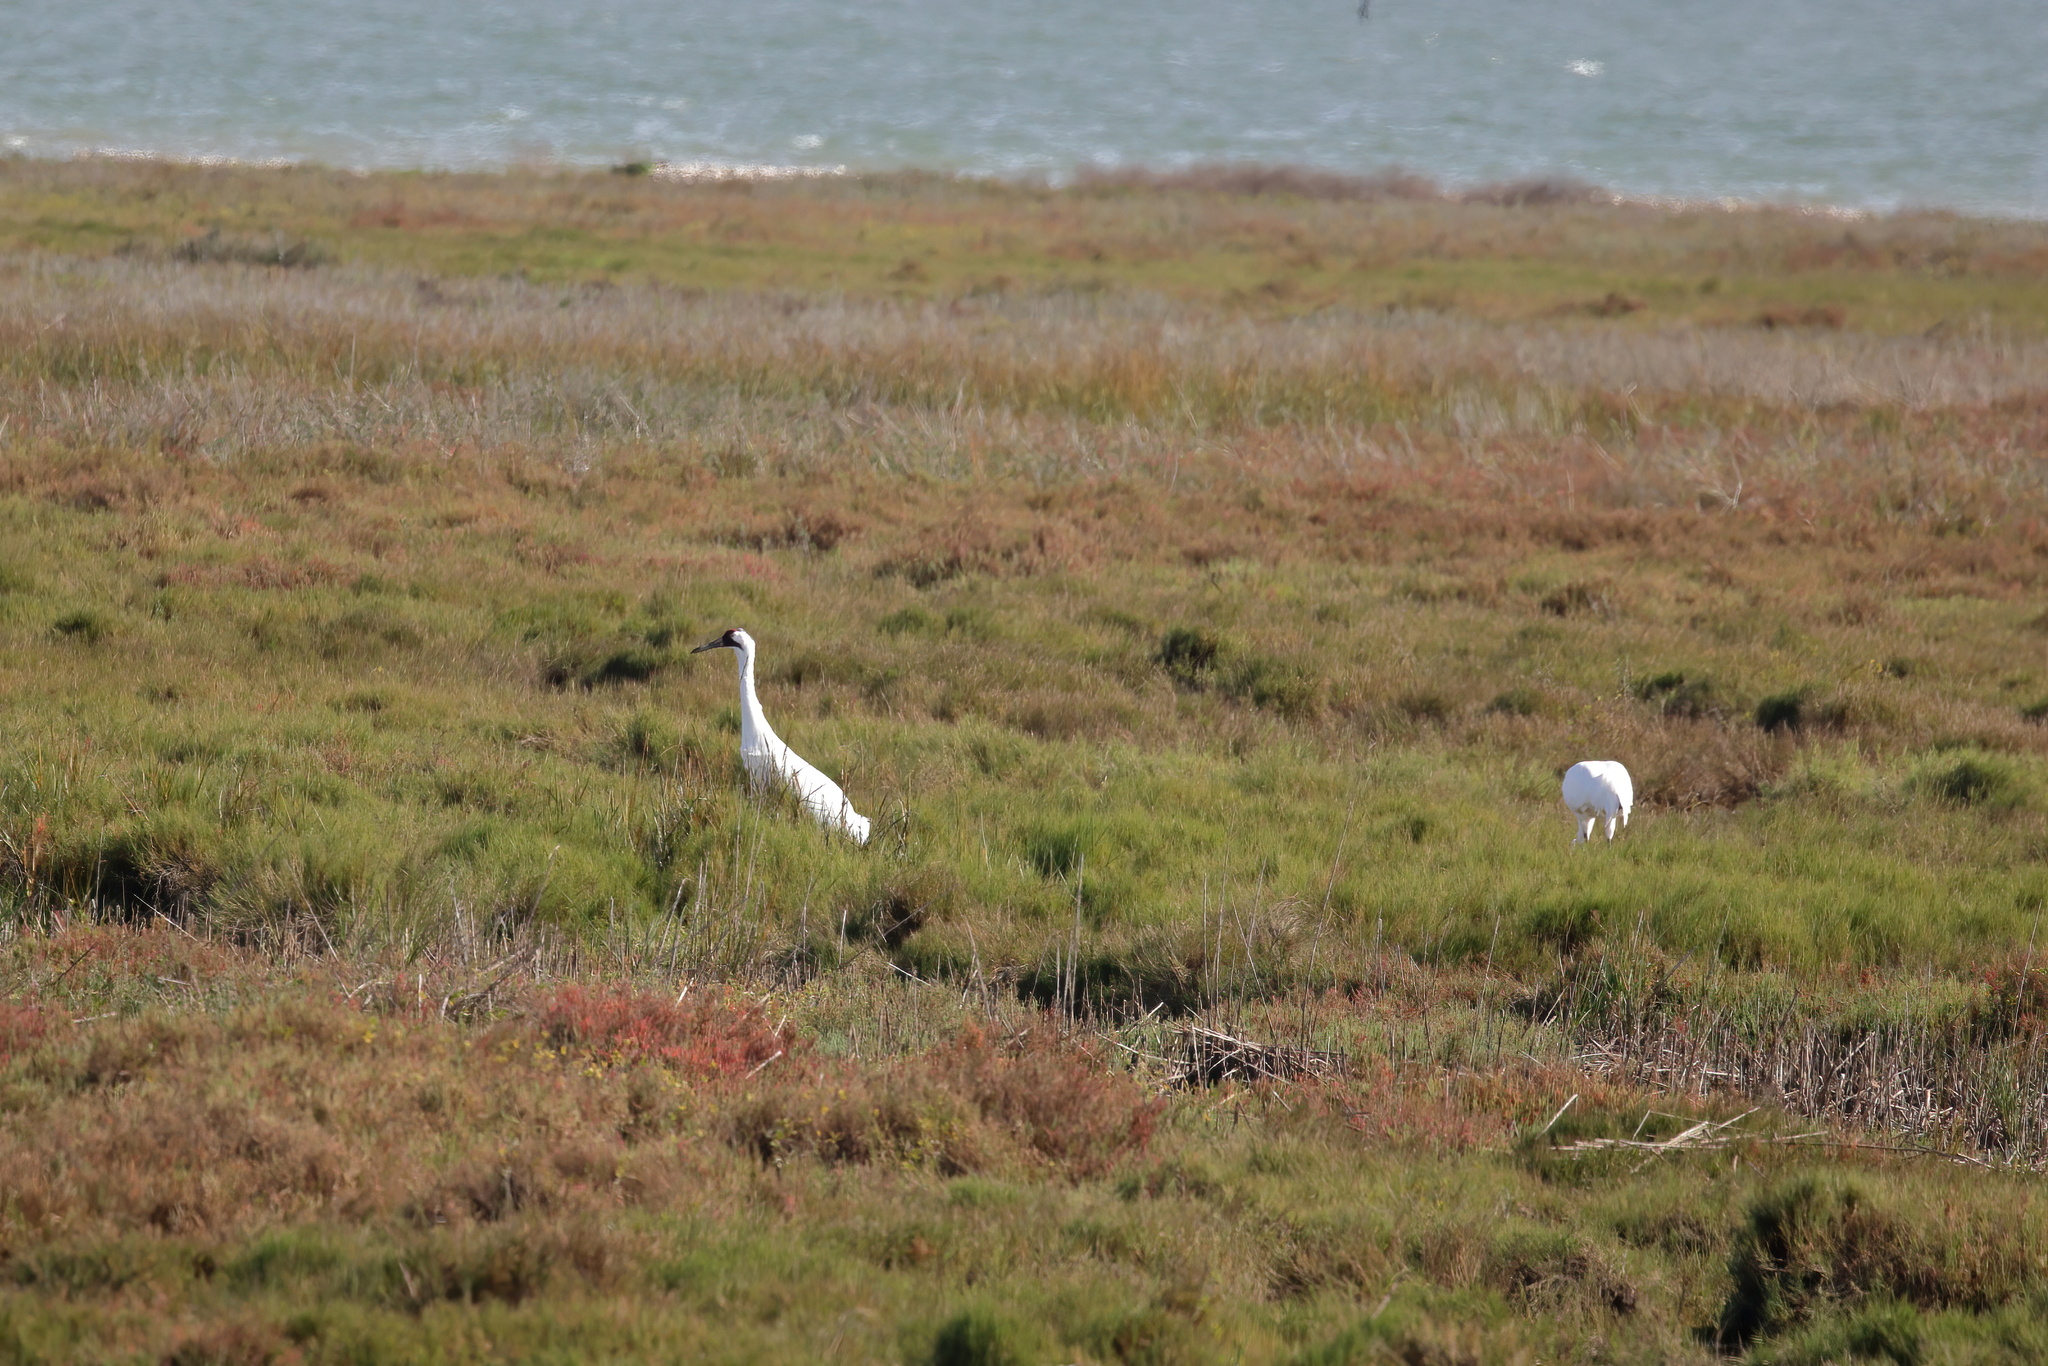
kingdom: Animalia
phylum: Chordata
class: Aves
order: Gruiformes
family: Gruidae
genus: Grus
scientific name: Grus americana
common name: Whooping crane
